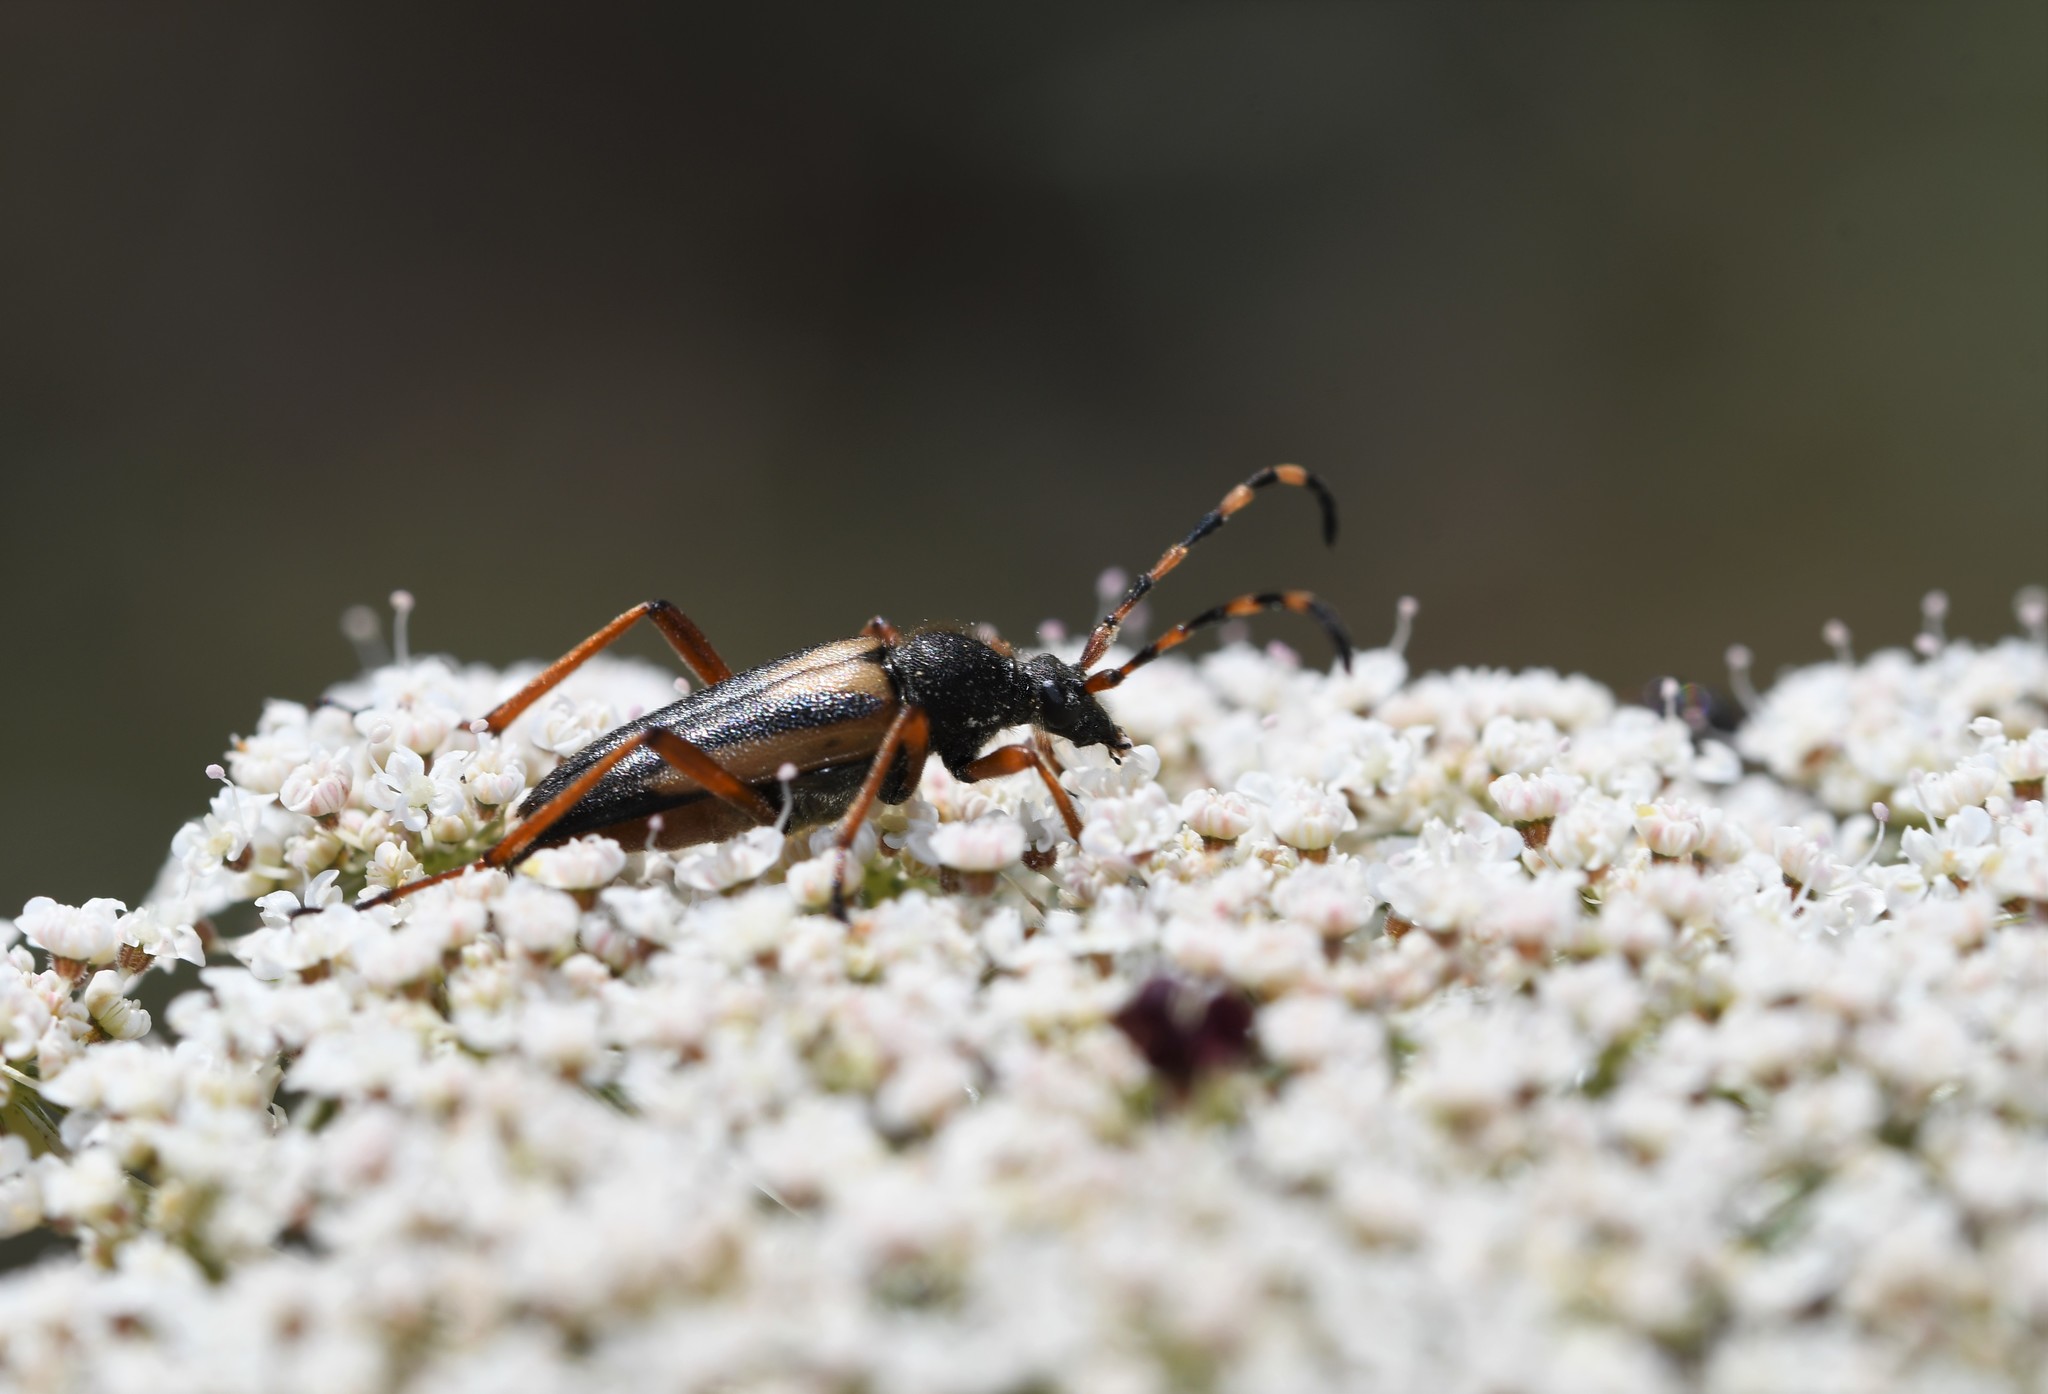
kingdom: Animalia
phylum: Arthropoda
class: Insecta
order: Coleoptera
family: Cerambycidae
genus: Stictoleptura
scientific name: Stictoleptura stragulata
